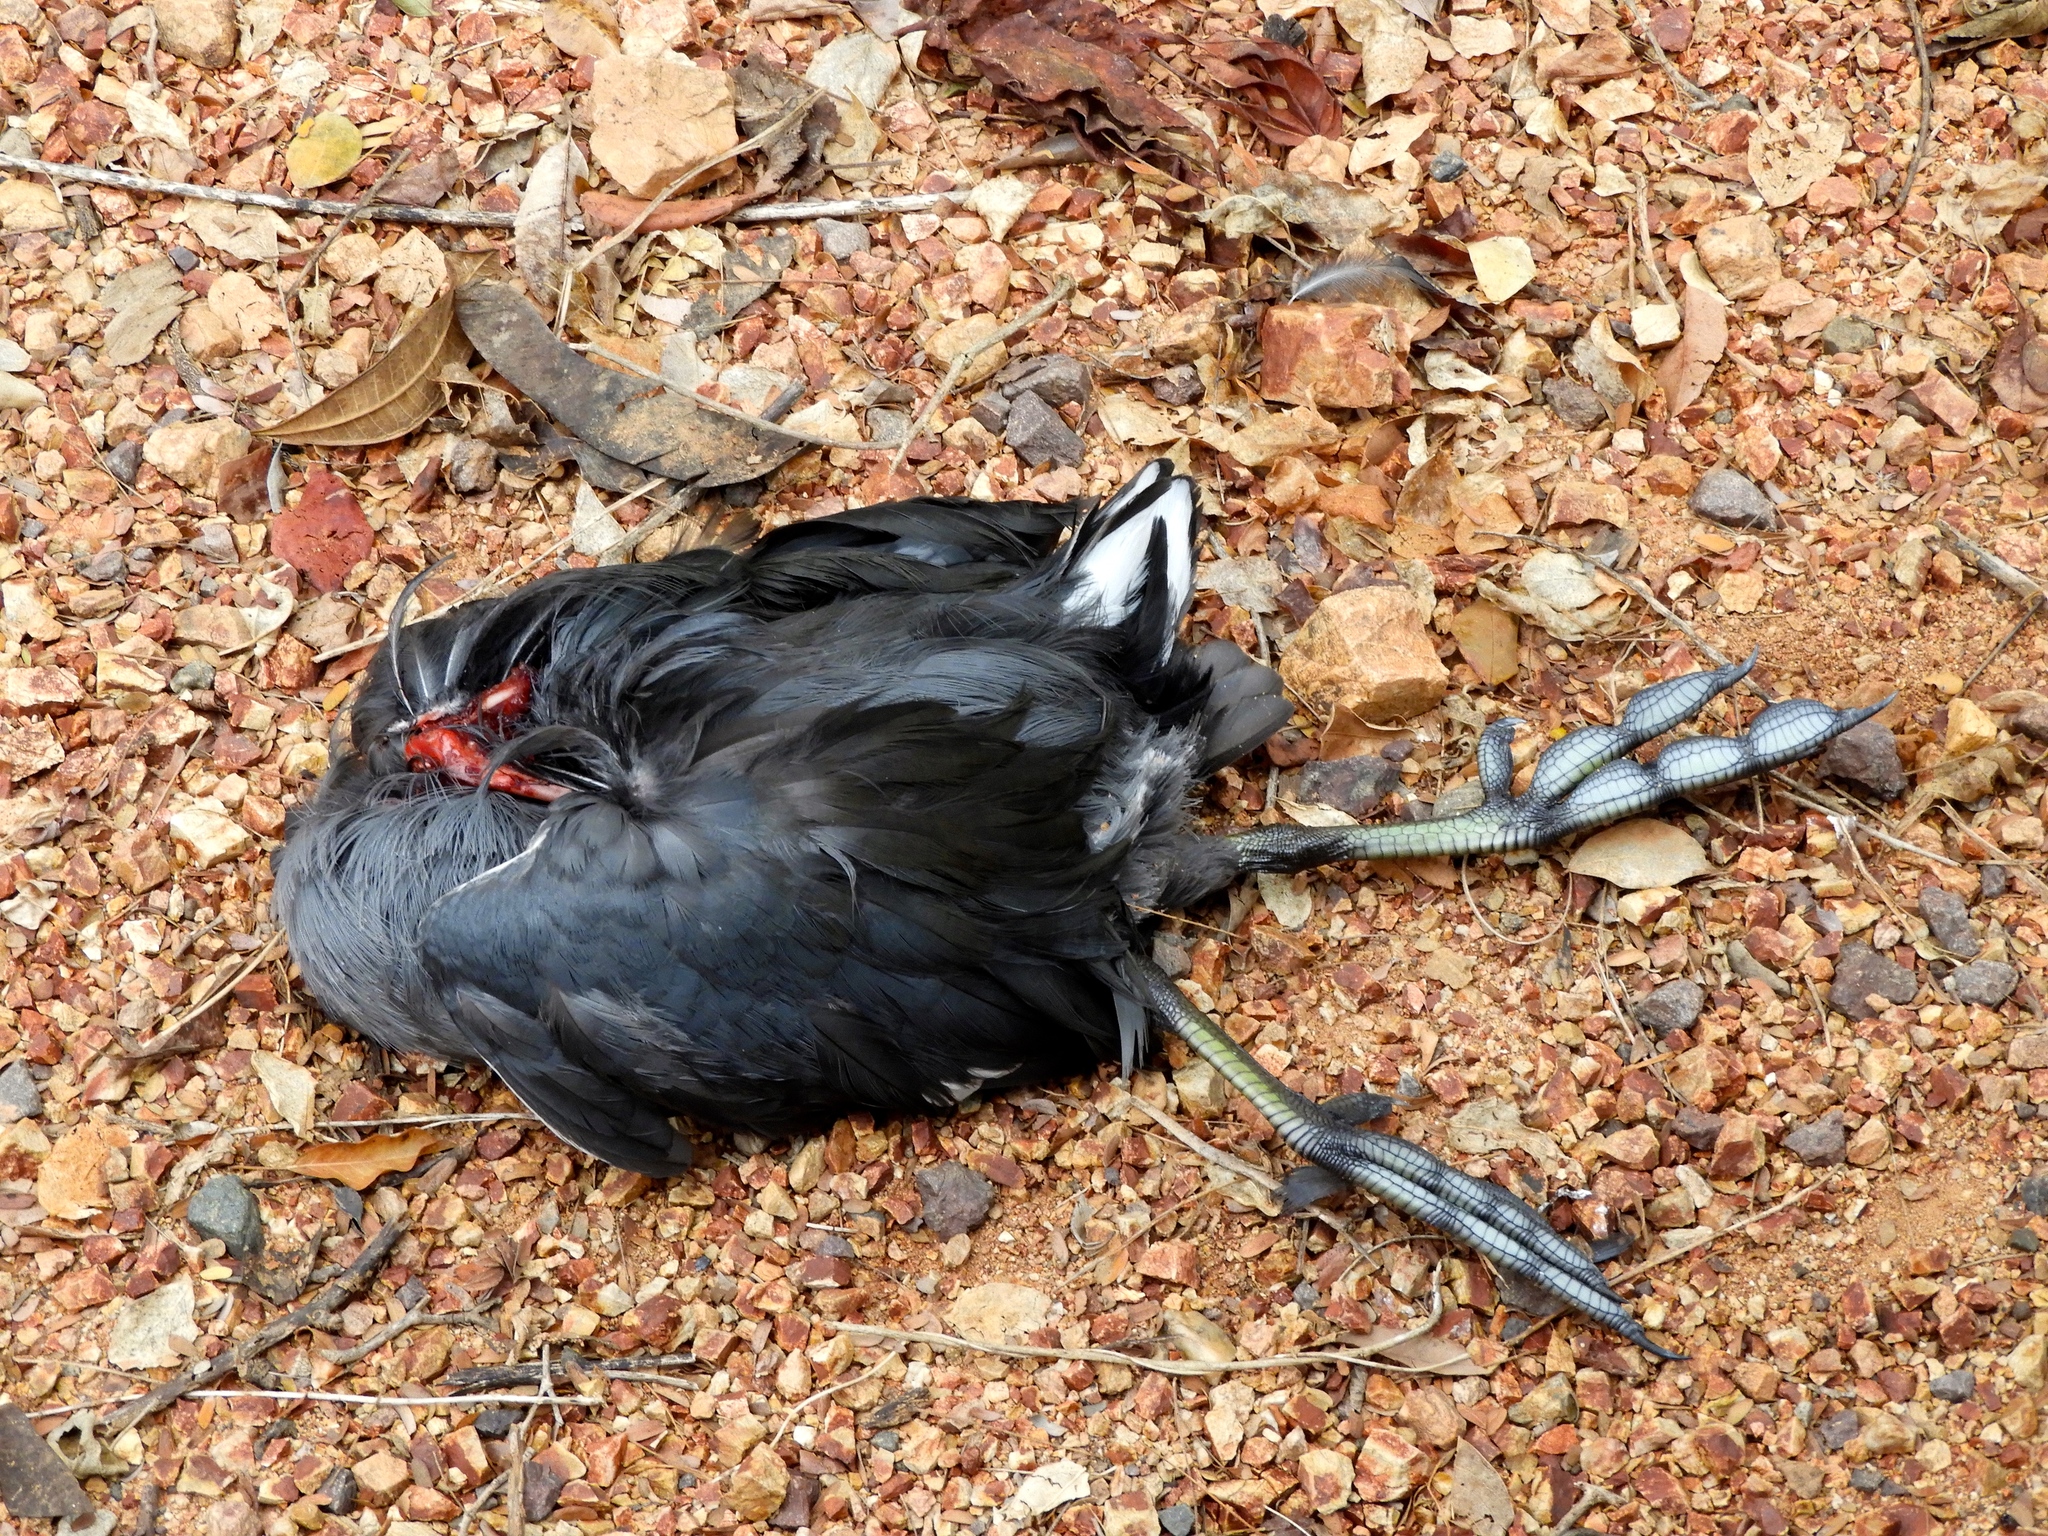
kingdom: Animalia
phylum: Chordata
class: Aves
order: Gruiformes
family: Rallidae
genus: Fulica
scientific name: Fulica americana
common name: American coot
